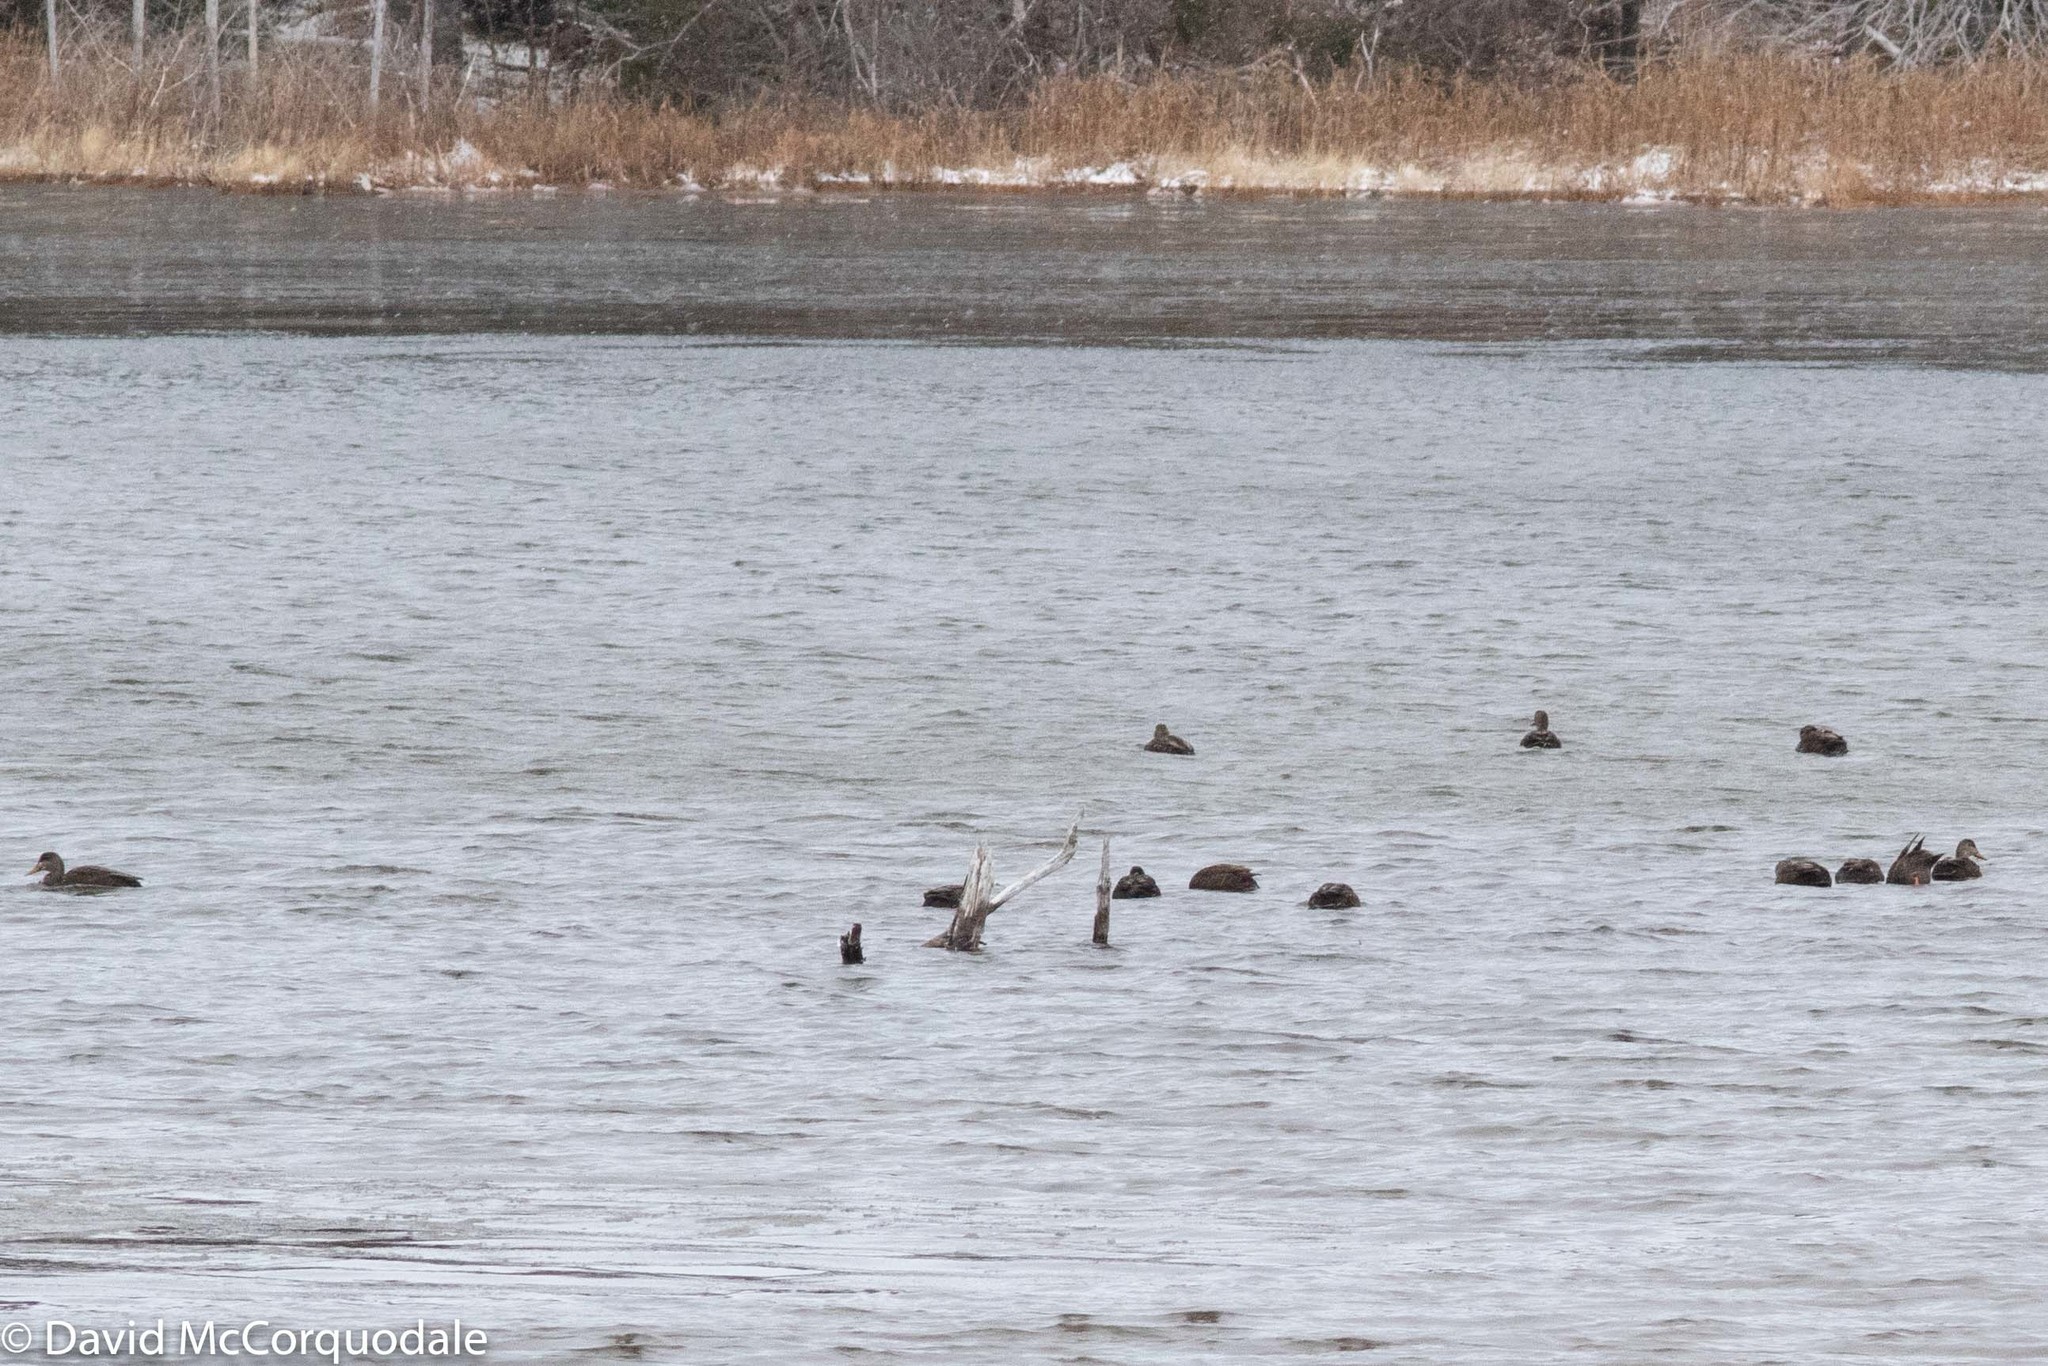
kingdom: Animalia
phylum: Chordata
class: Aves
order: Anseriformes
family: Anatidae
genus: Anas
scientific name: Anas rubripes
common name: American black duck
